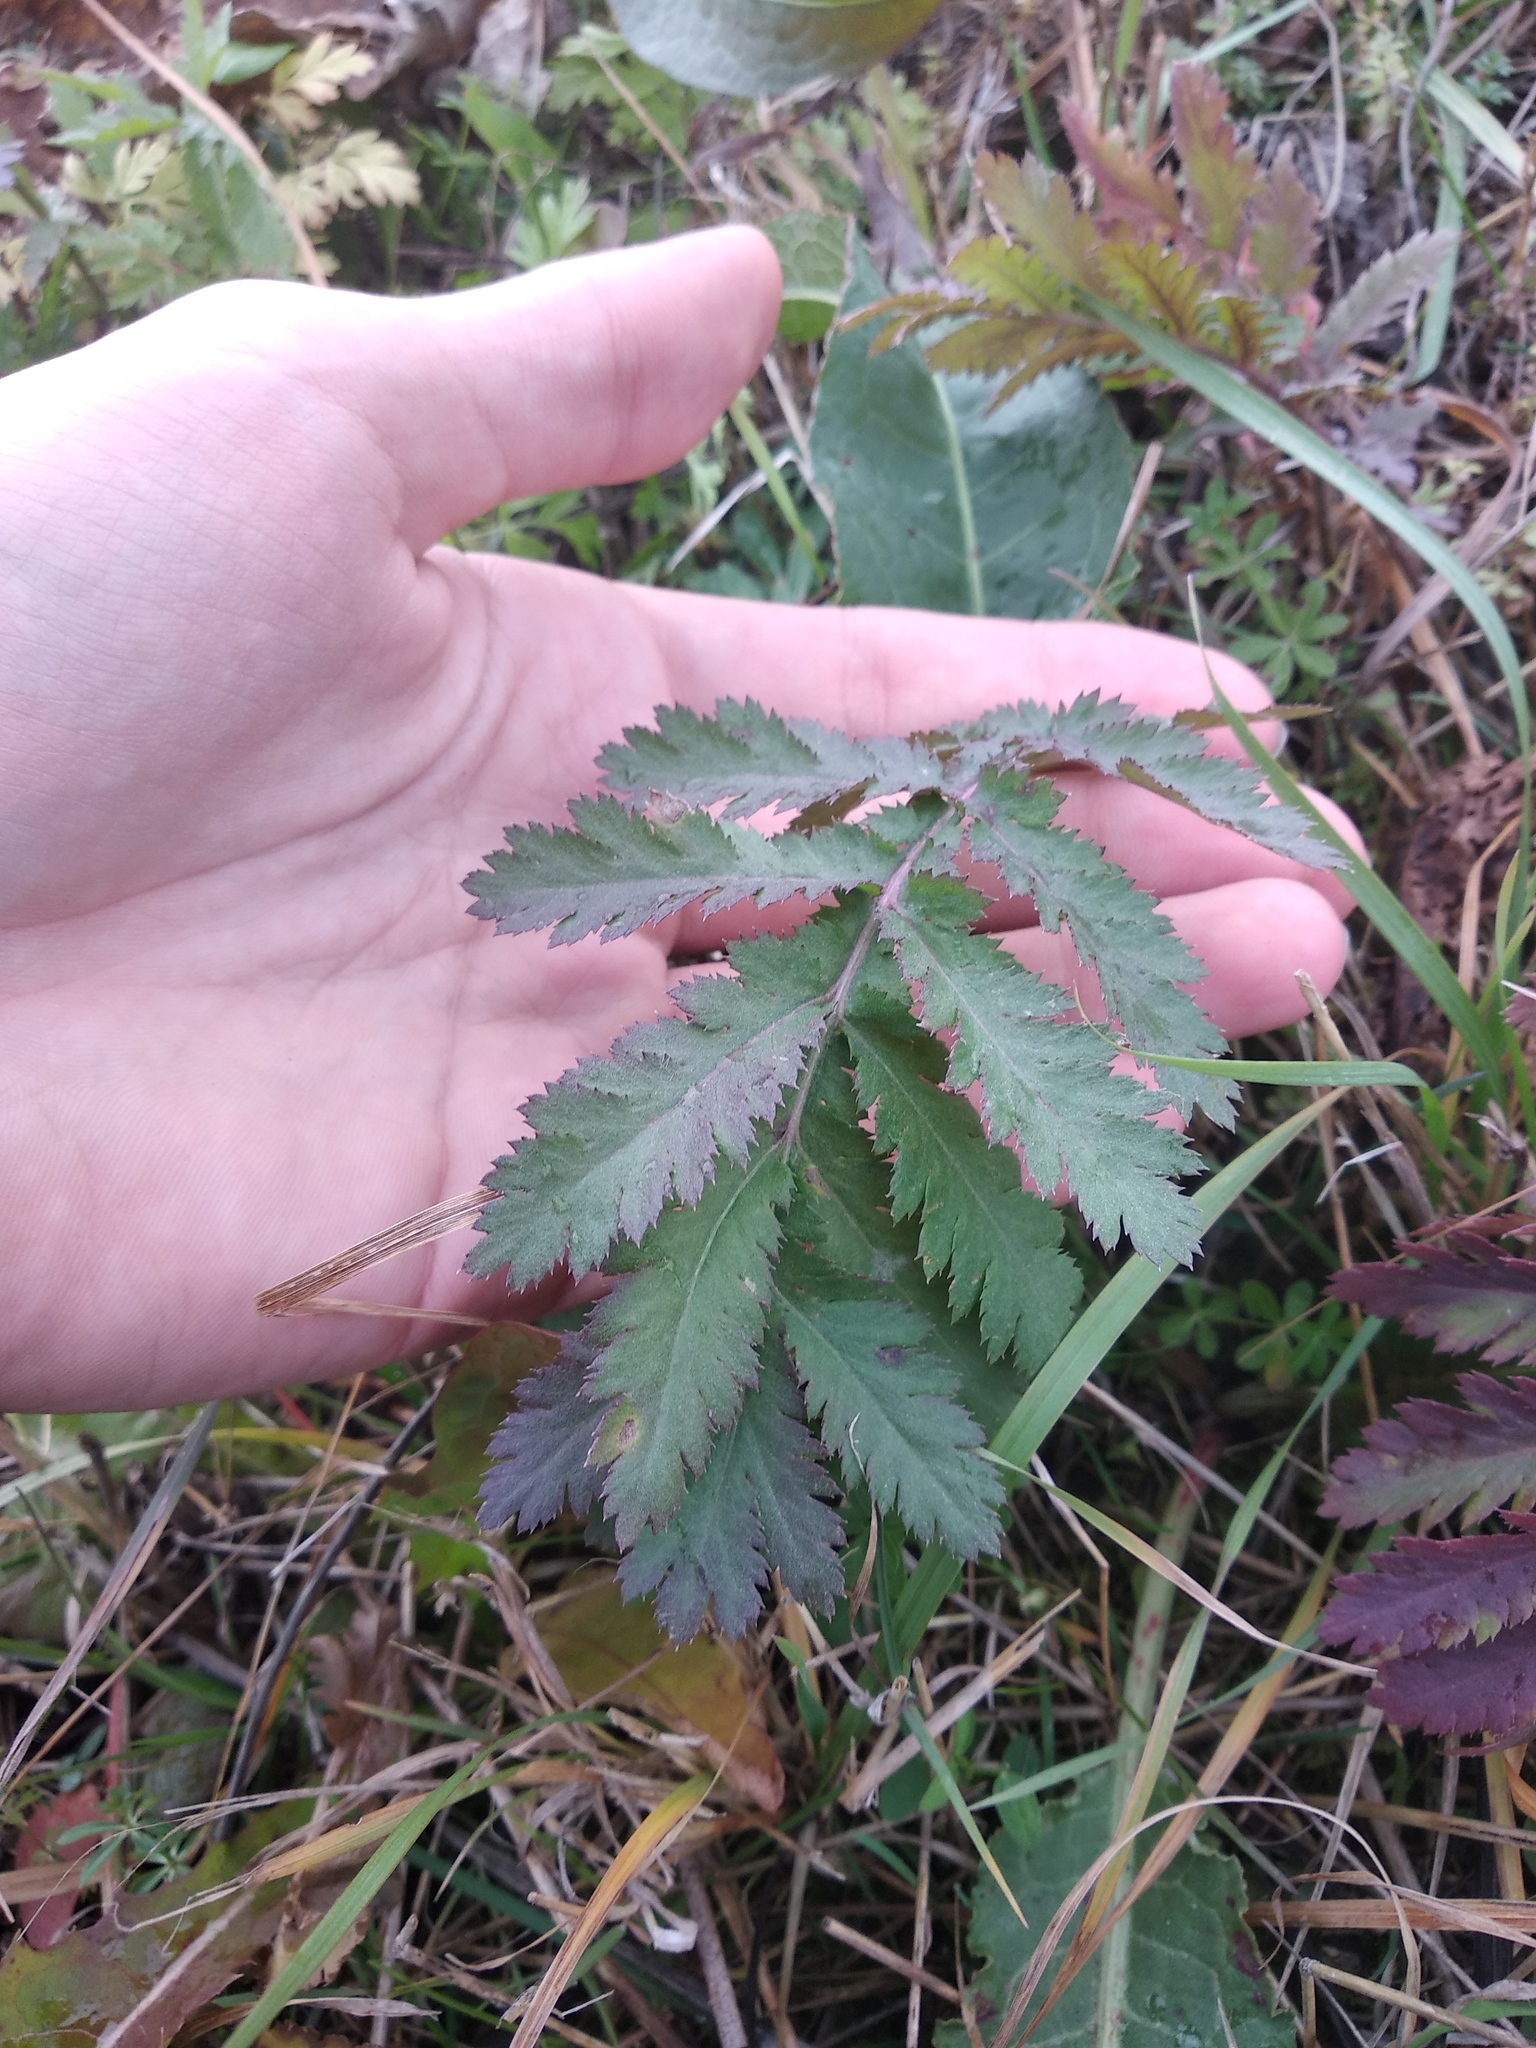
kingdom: Plantae
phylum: Tracheophyta
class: Magnoliopsida
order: Asterales
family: Asteraceae
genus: Tanacetum
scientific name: Tanacetum vulgare
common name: Common tansy
